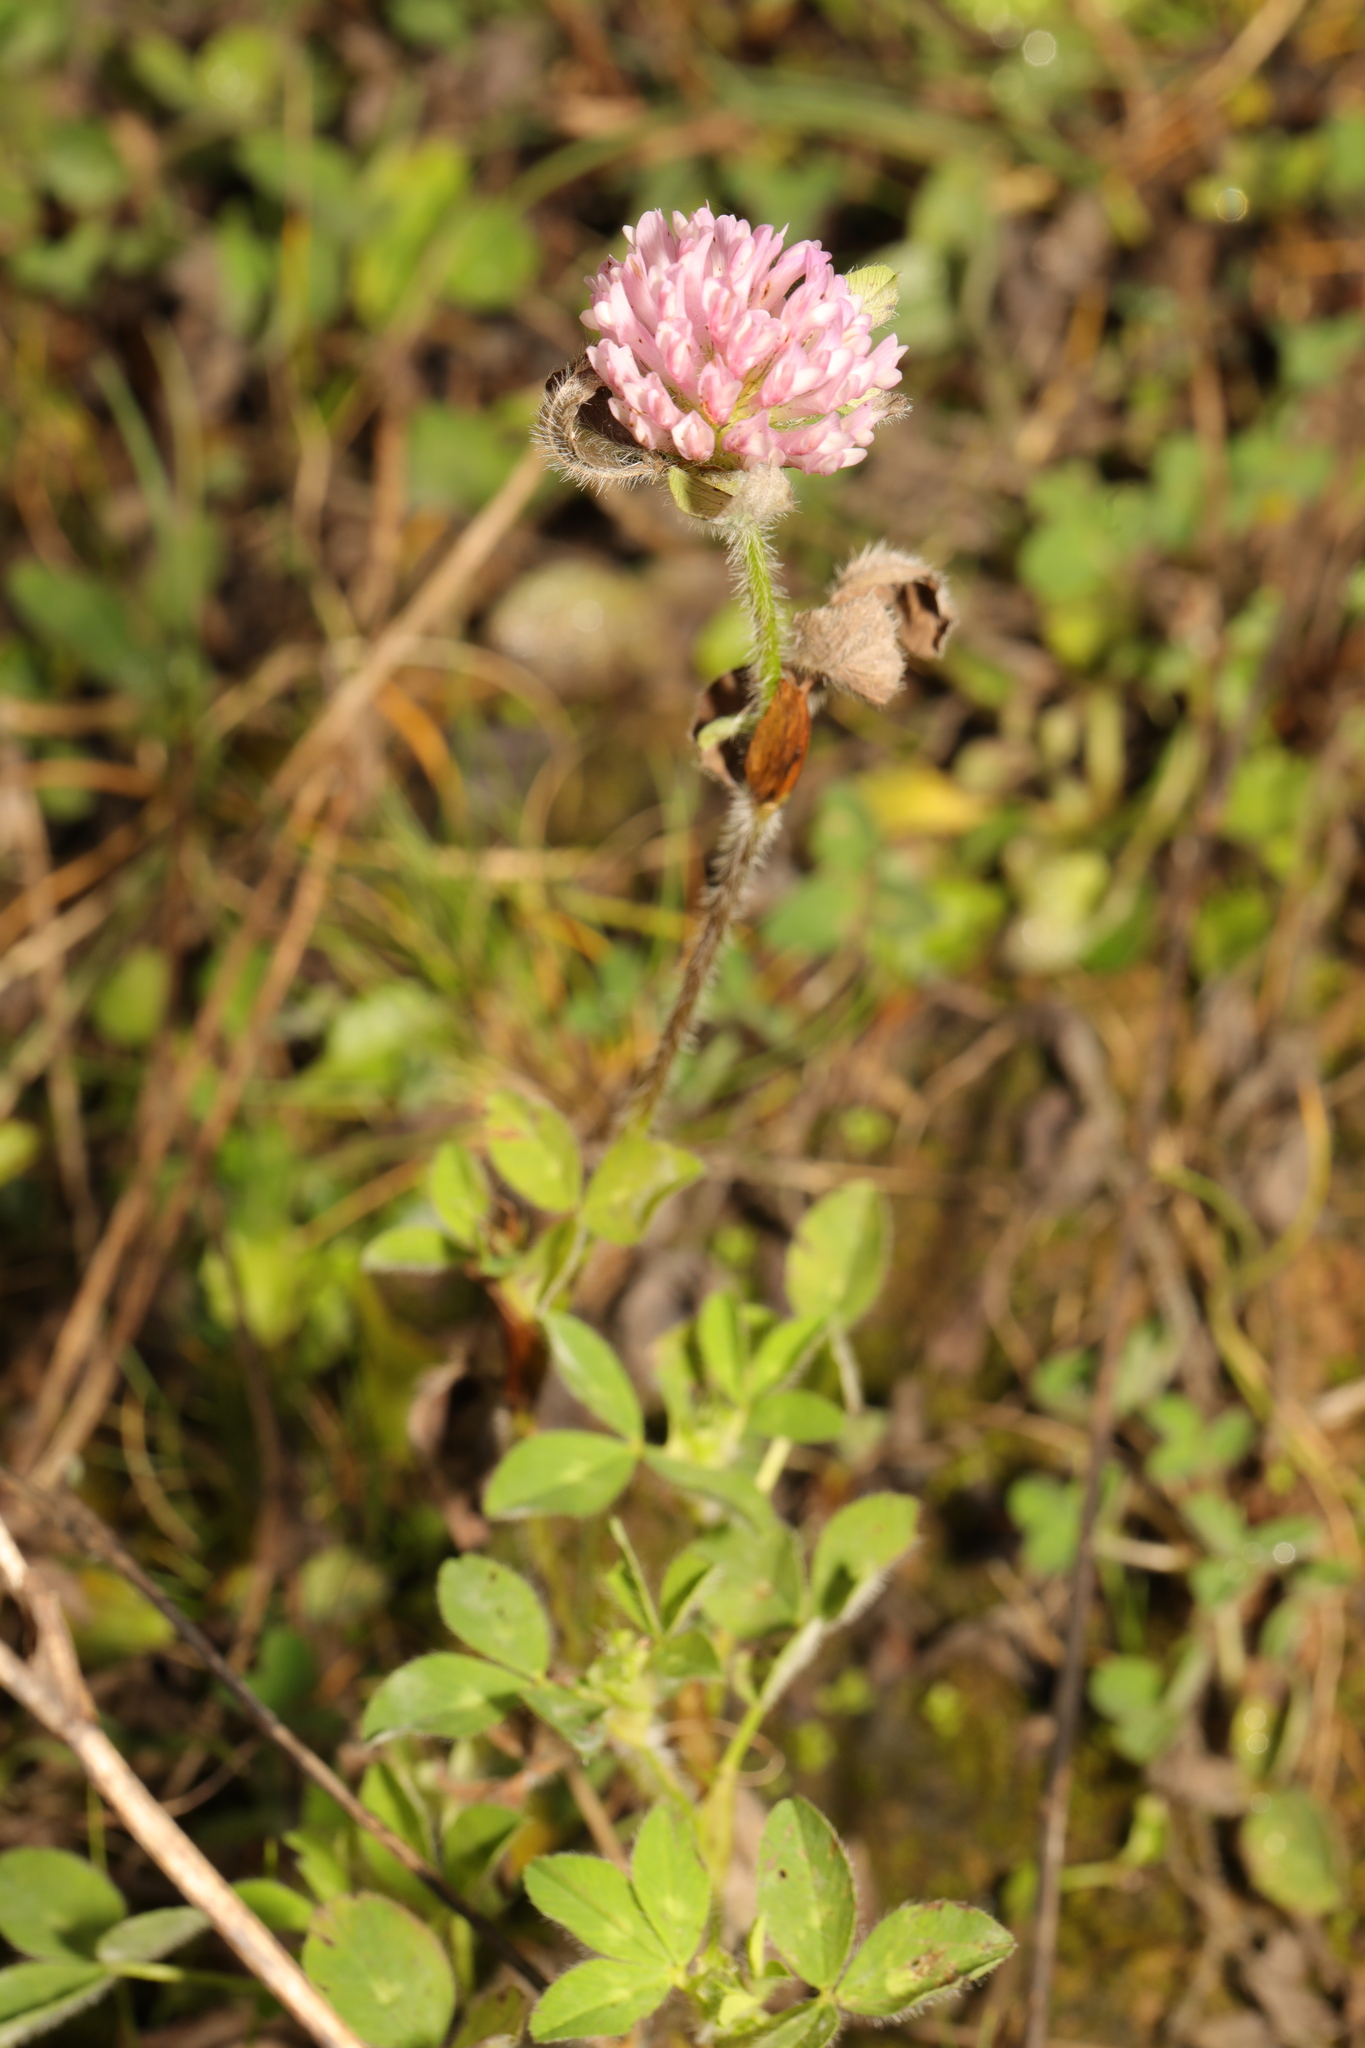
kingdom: Plantae
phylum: Tracheophyta
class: Magnoliopsida
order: Fabales
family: Fabaceae
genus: Trifolium
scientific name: Trifolium pratense
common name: Red clover
